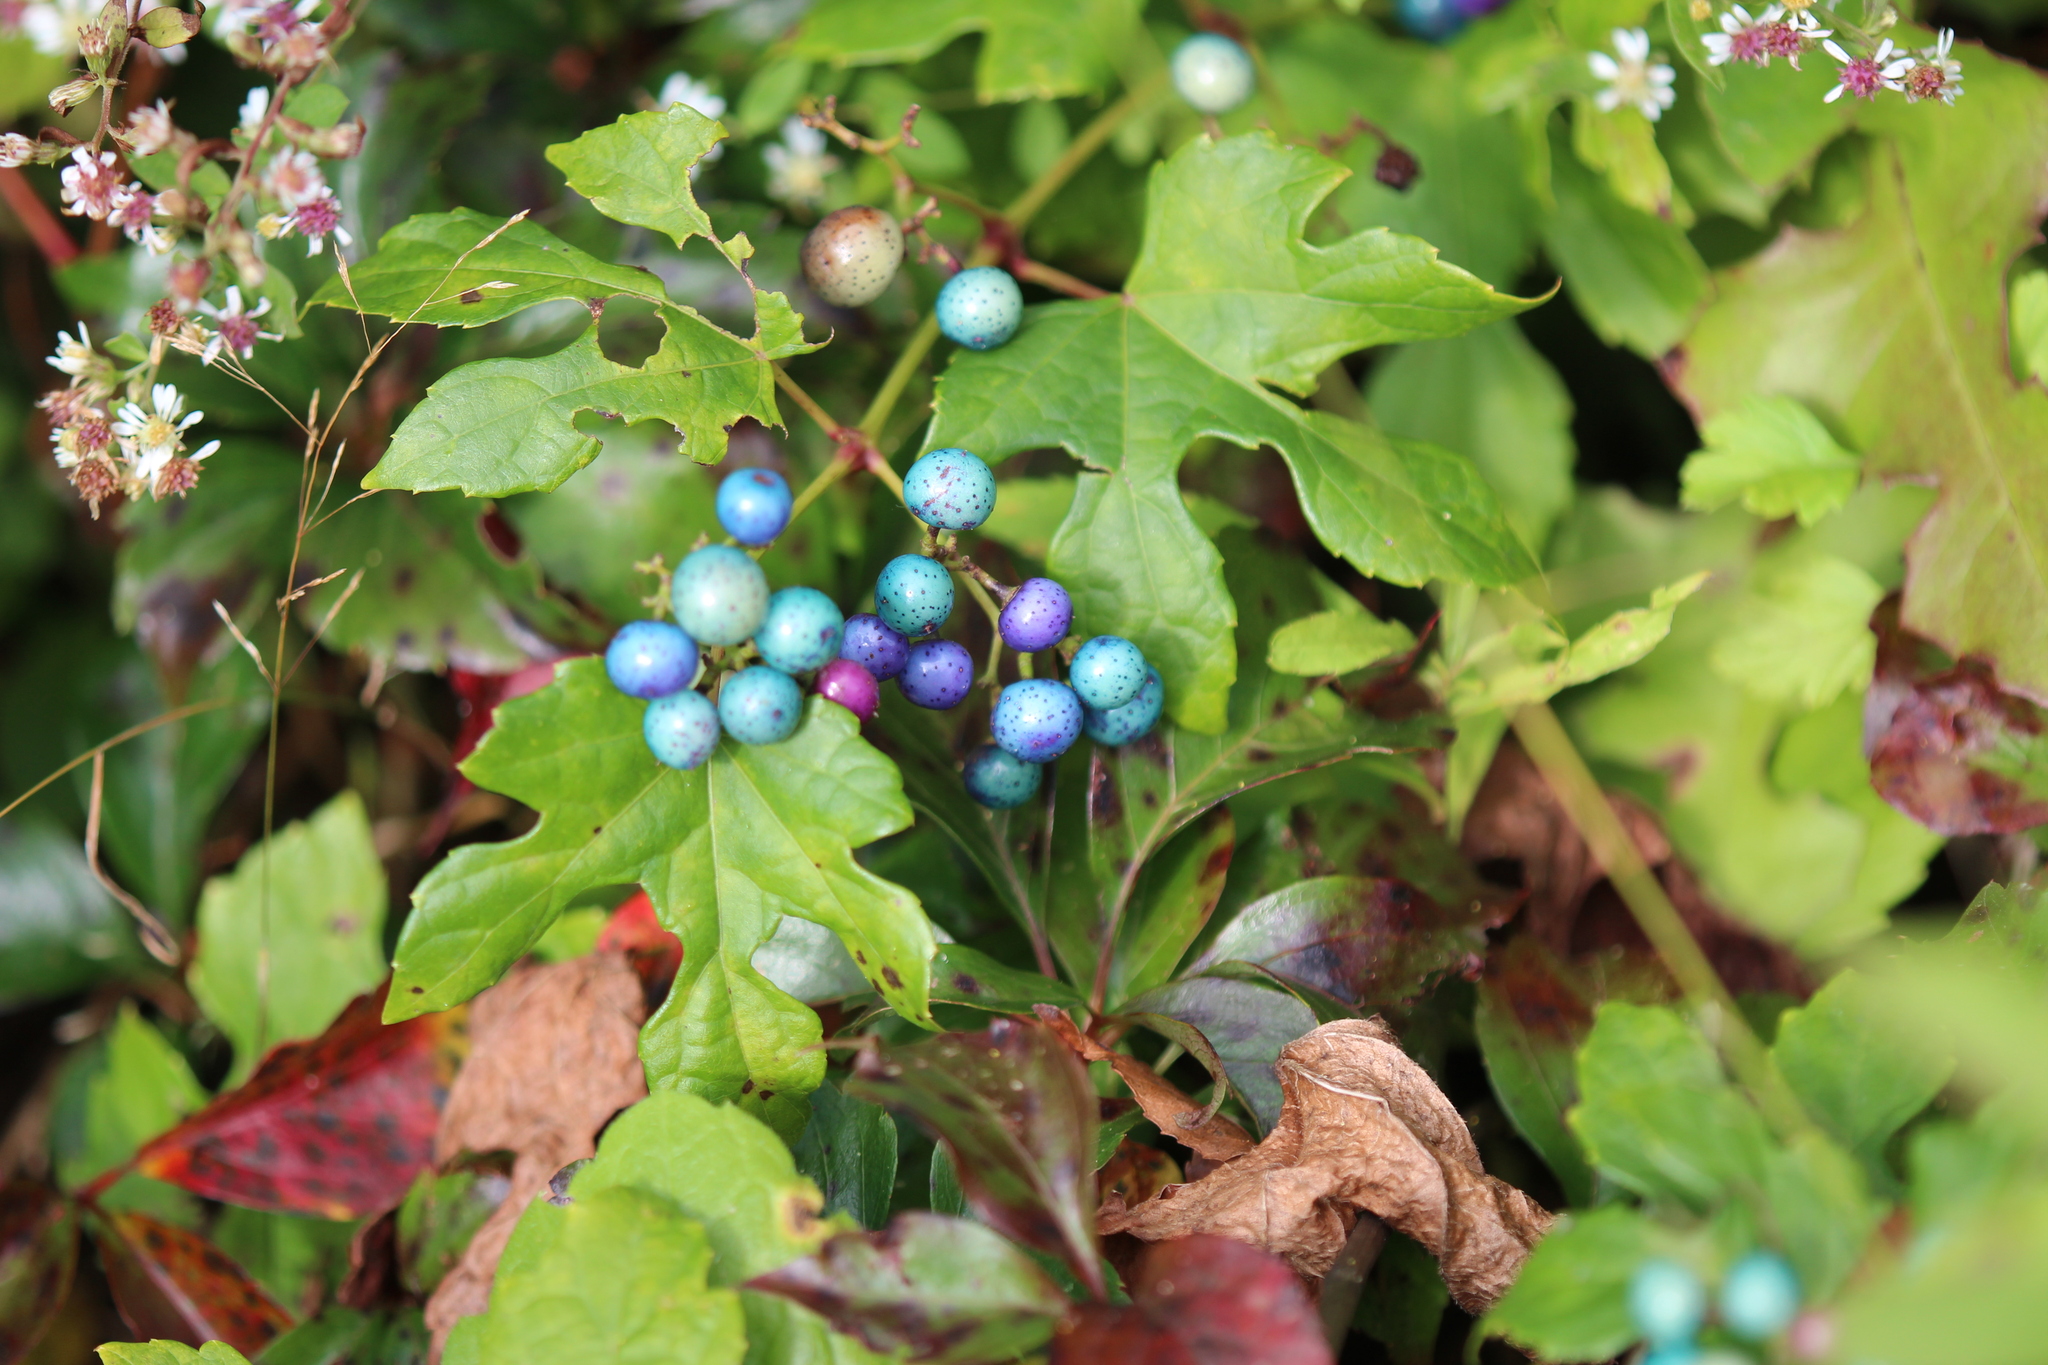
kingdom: Plantae
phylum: Tracheophyta
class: Magnoliopsida
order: Vitales
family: Vitaceae
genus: Ampelopsis
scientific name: Ampelopsis glandulosa
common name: Amur peppervine
